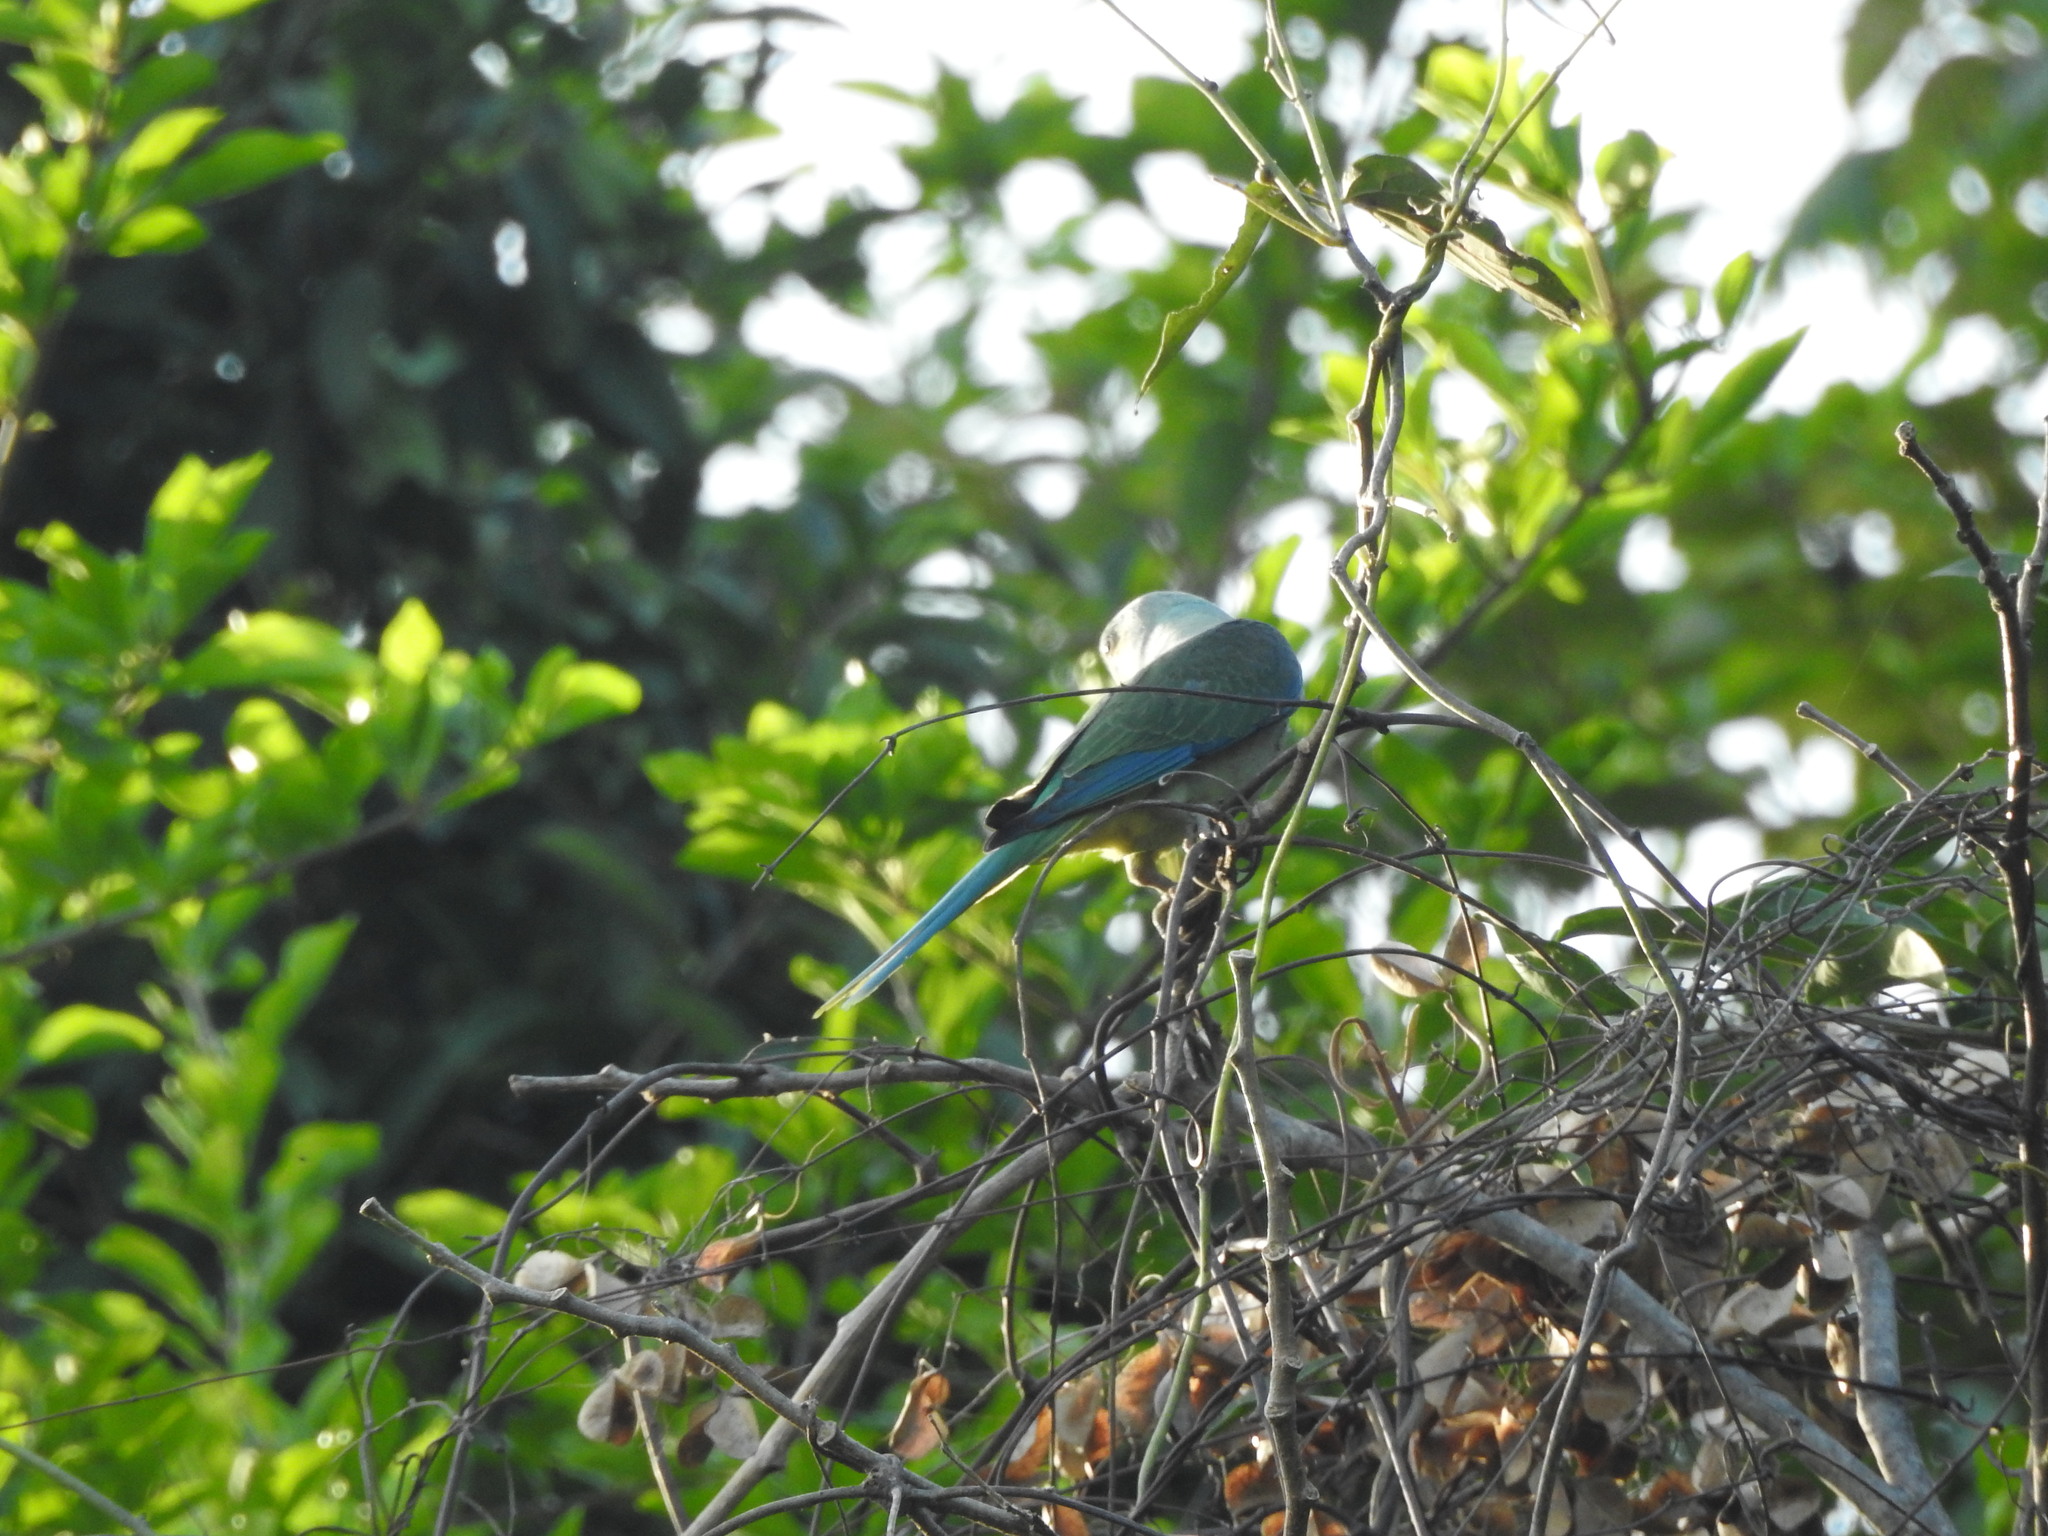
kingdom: Animalia
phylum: Chordata
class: Aves
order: Psittaciformes
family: Psittacidae
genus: Psittacula
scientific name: Psittacula columboides
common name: Blue-winged parakeet
